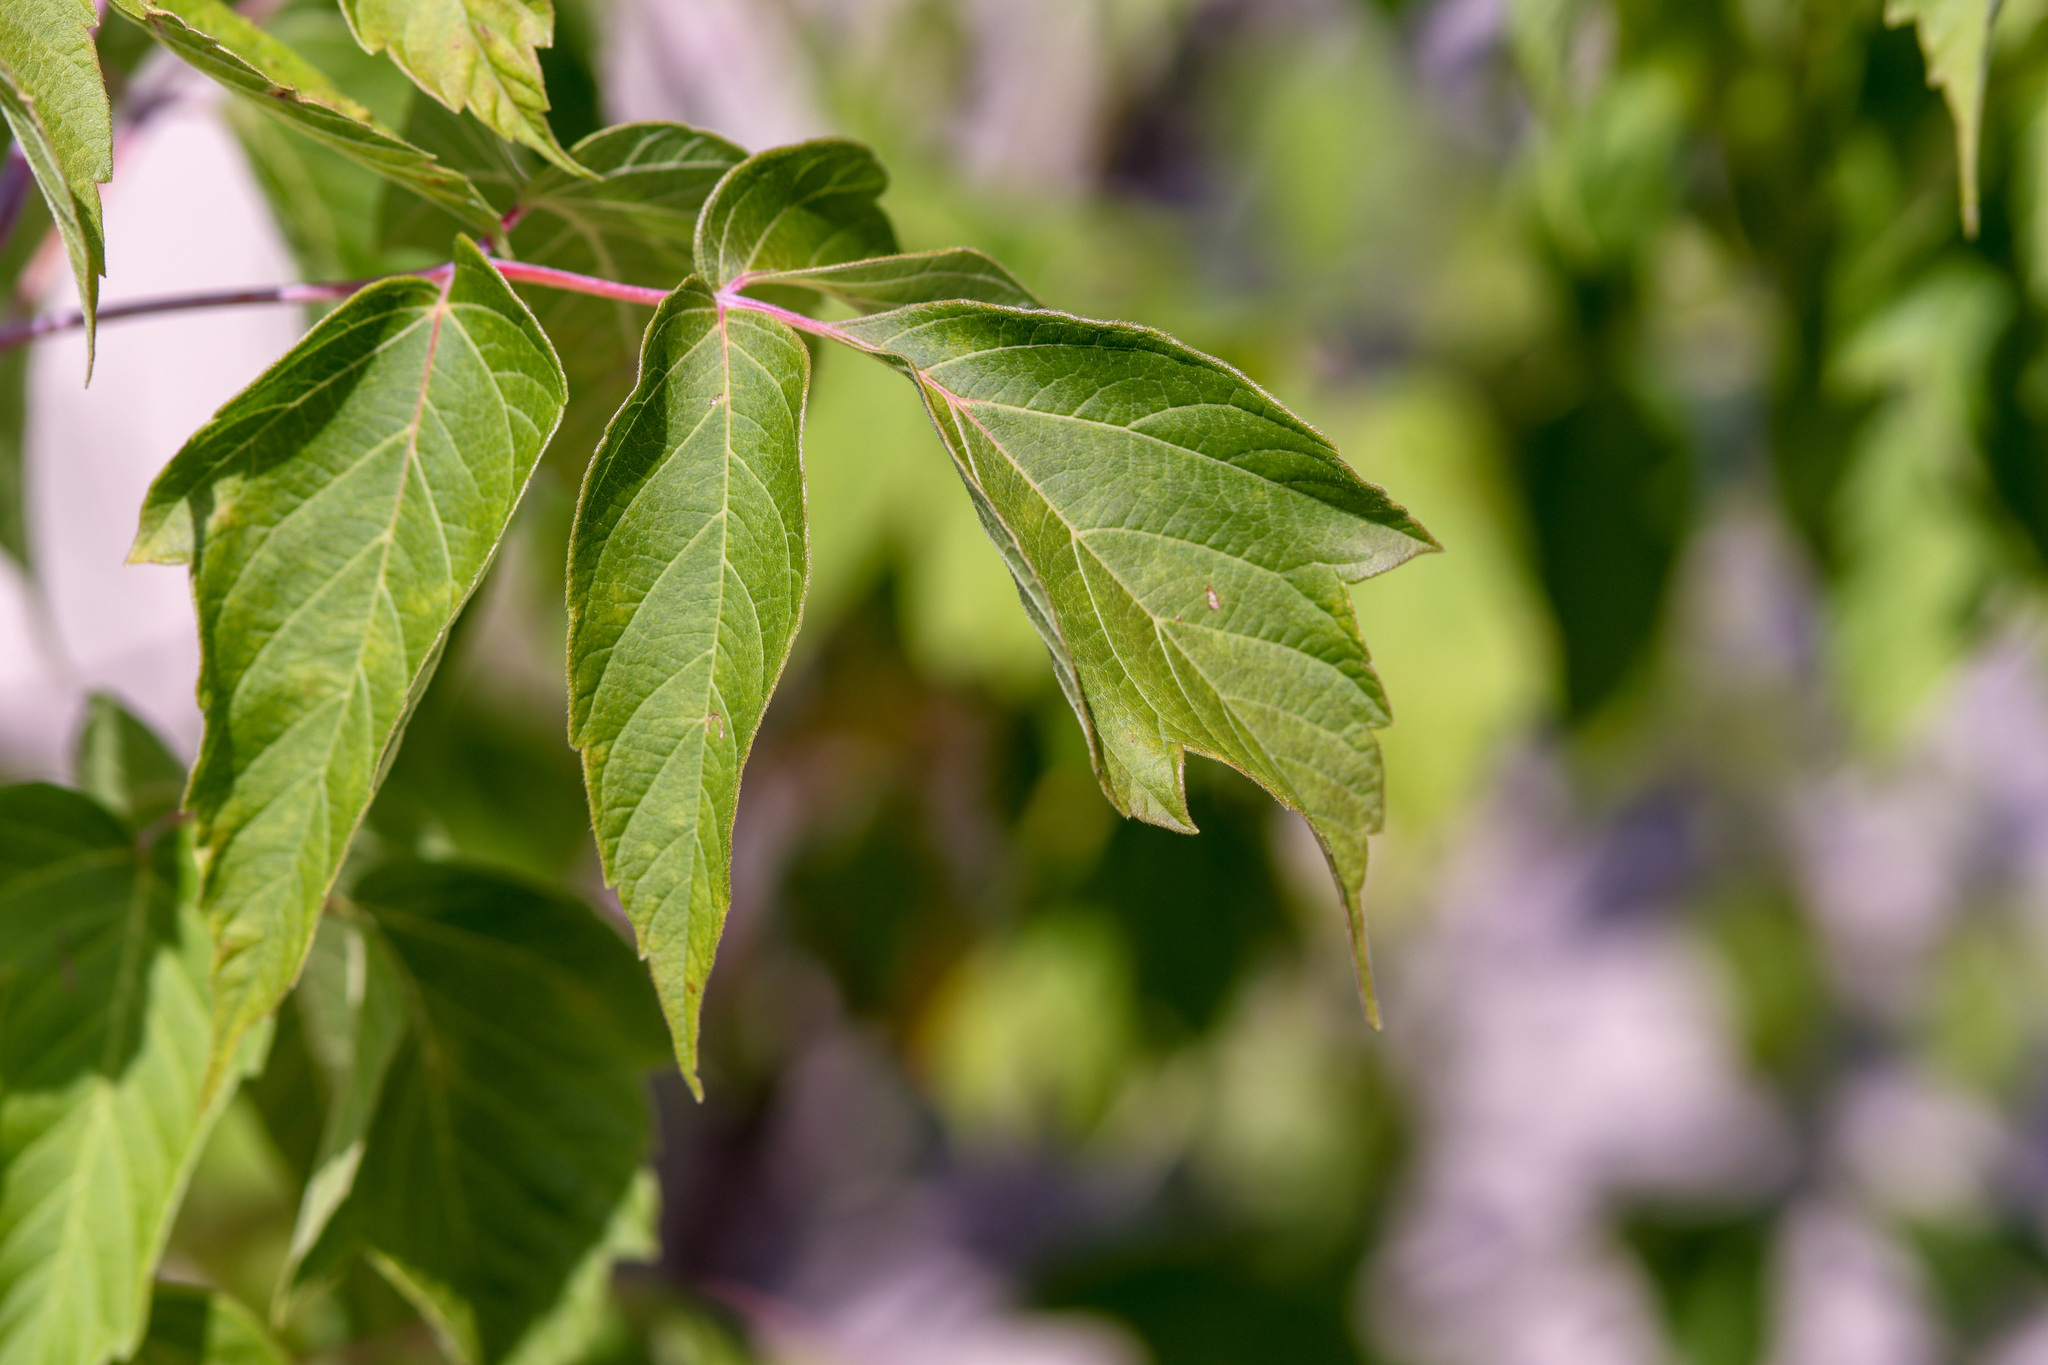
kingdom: Plantae
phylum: Tracheophyta
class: Magnoliopsida
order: Sapindales
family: Sapindaceae
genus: Acer
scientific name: Acer negundo
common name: Ashleaf maple
